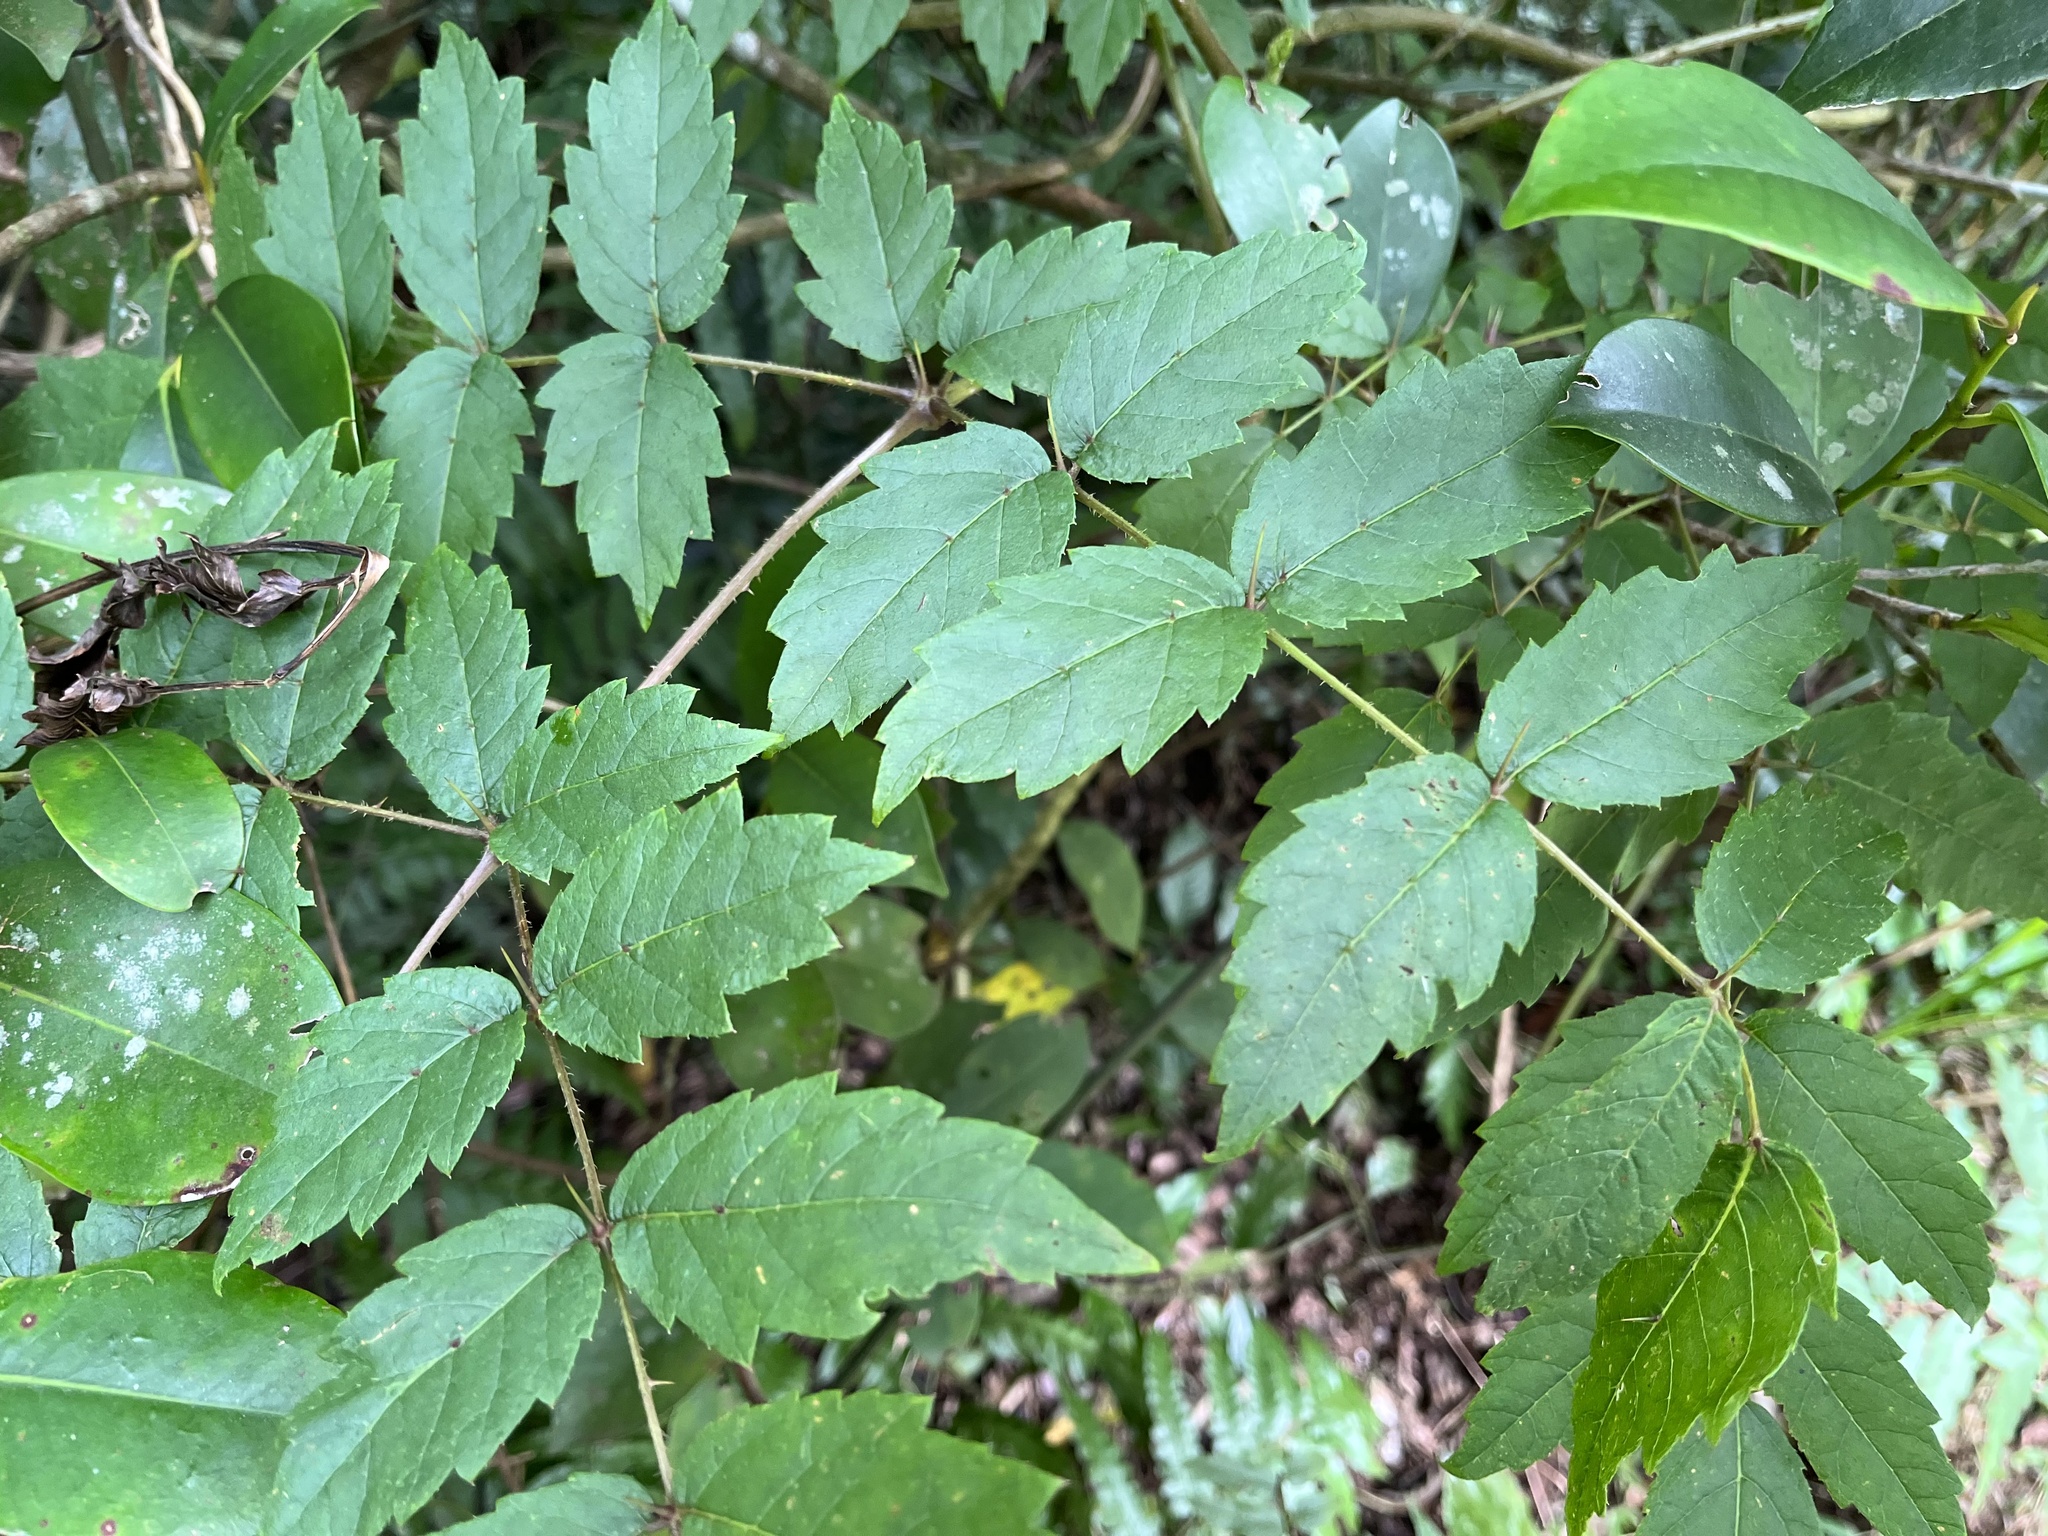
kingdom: Plantae
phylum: Tracheophyta
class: Magnoliopsida
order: Apiales
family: Araliaceae
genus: Aralia
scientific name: Aralia decaisneana
